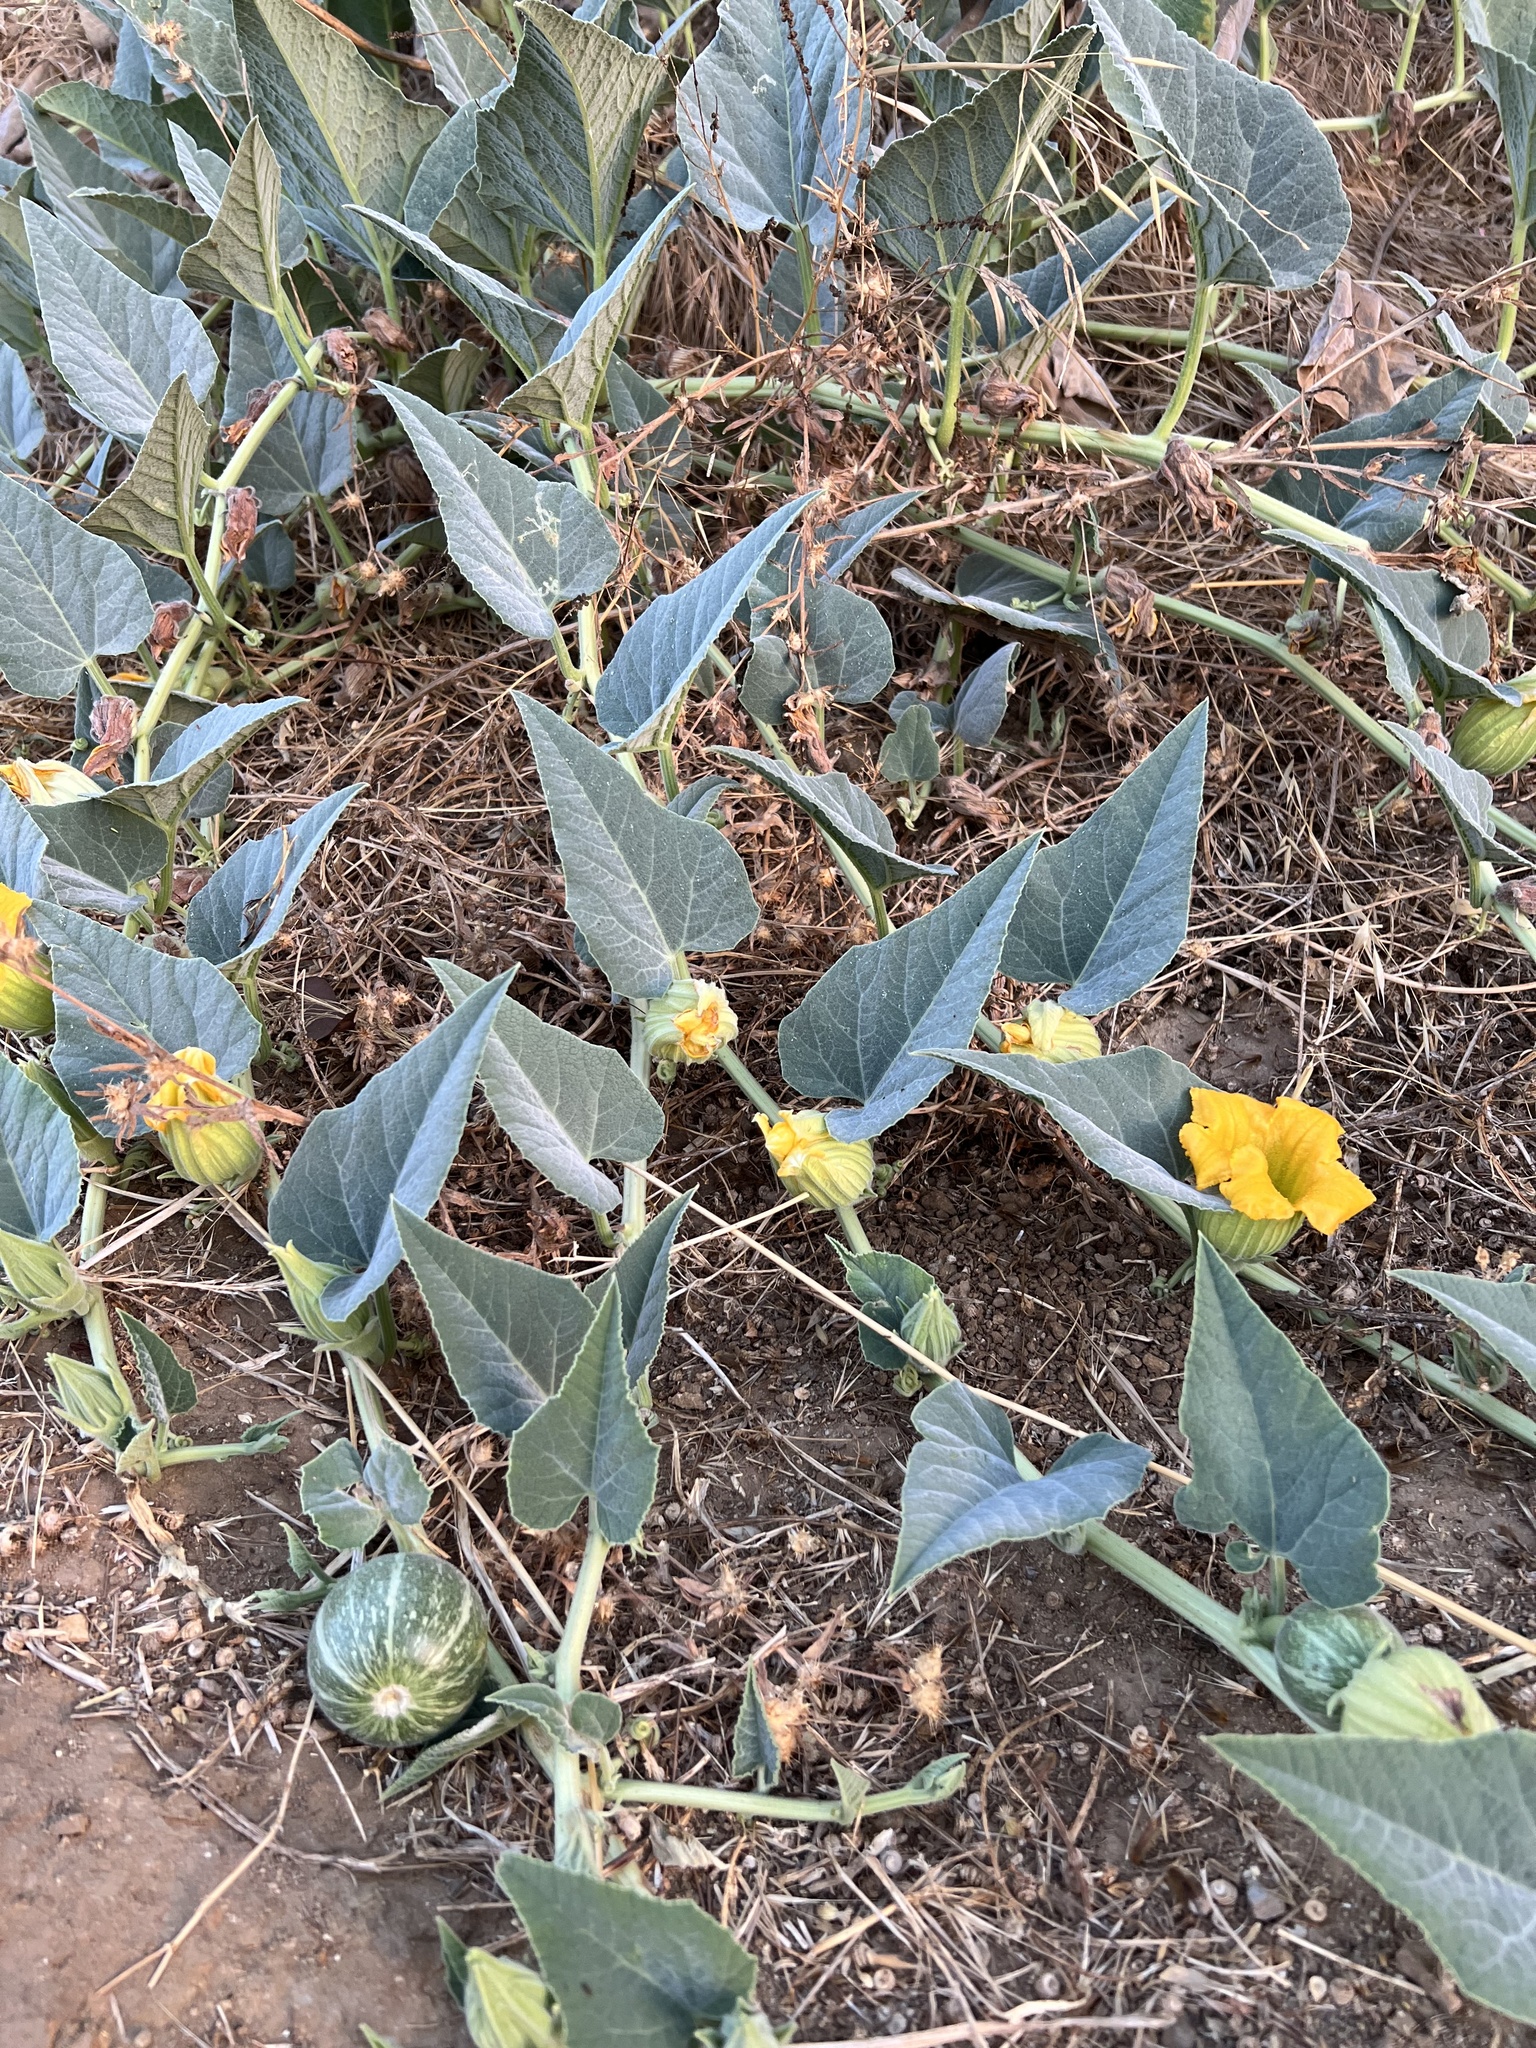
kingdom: Plantae
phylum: Tracheophyta
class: Magnoliopsida
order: Cucurbitales
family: Cucurbitaceae
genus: Cucurbita
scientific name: Cucurbita foetidissima
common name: Buffalo gourd
